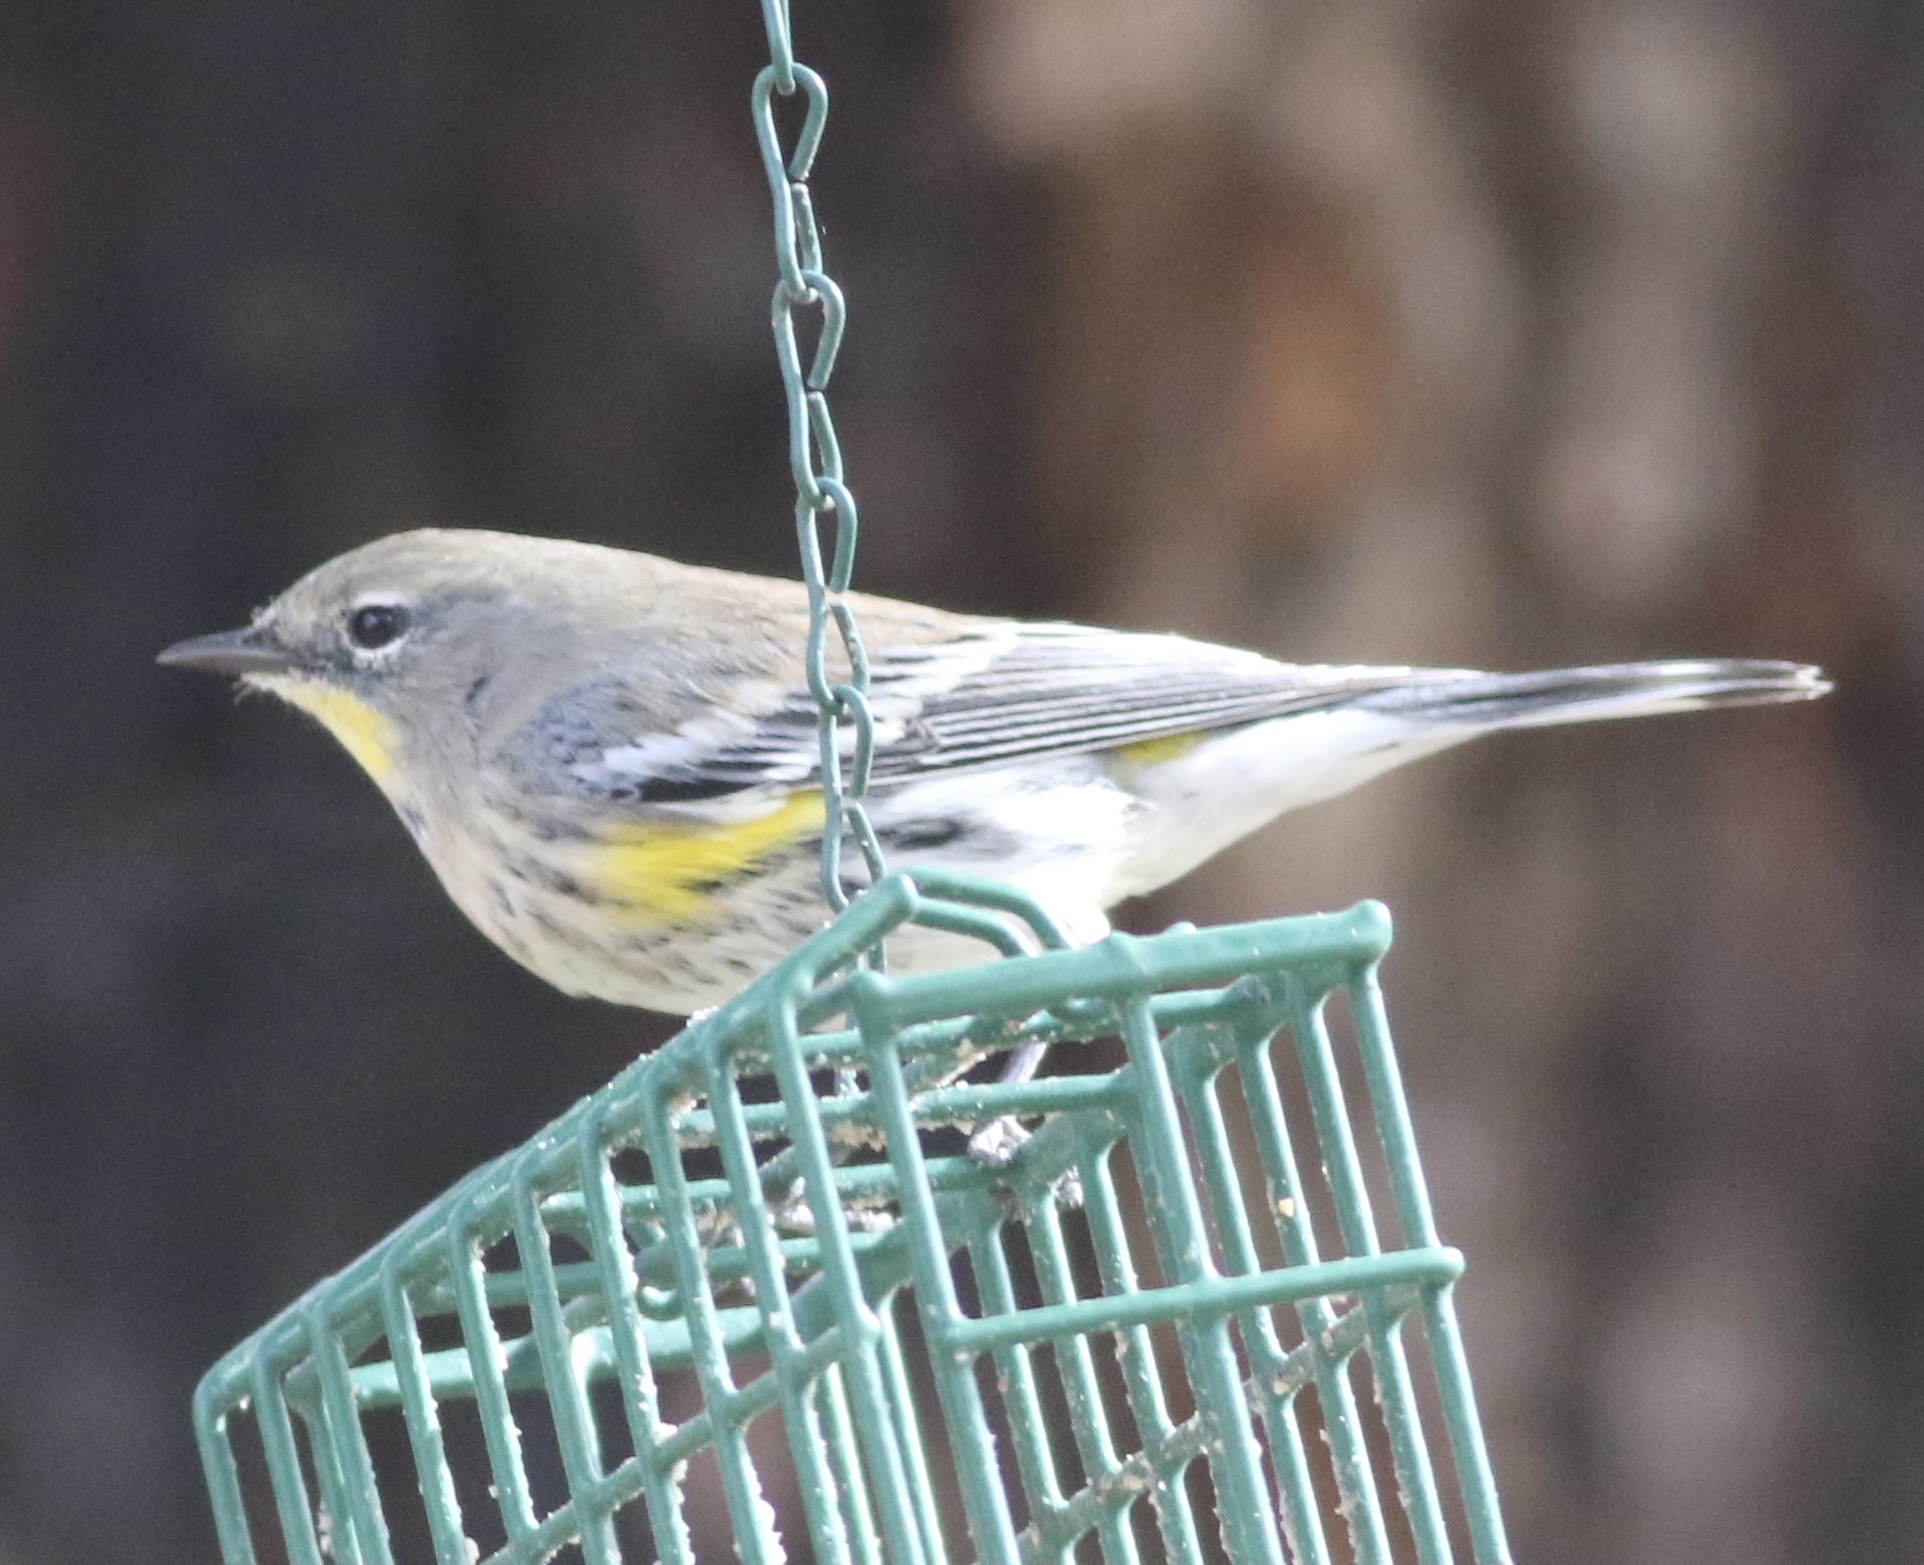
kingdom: Animalia
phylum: Chordata
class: Aves
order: Passeriformes
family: Parulidae
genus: Setophaga
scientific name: Setophaga coronata
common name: Myrtle warbler
